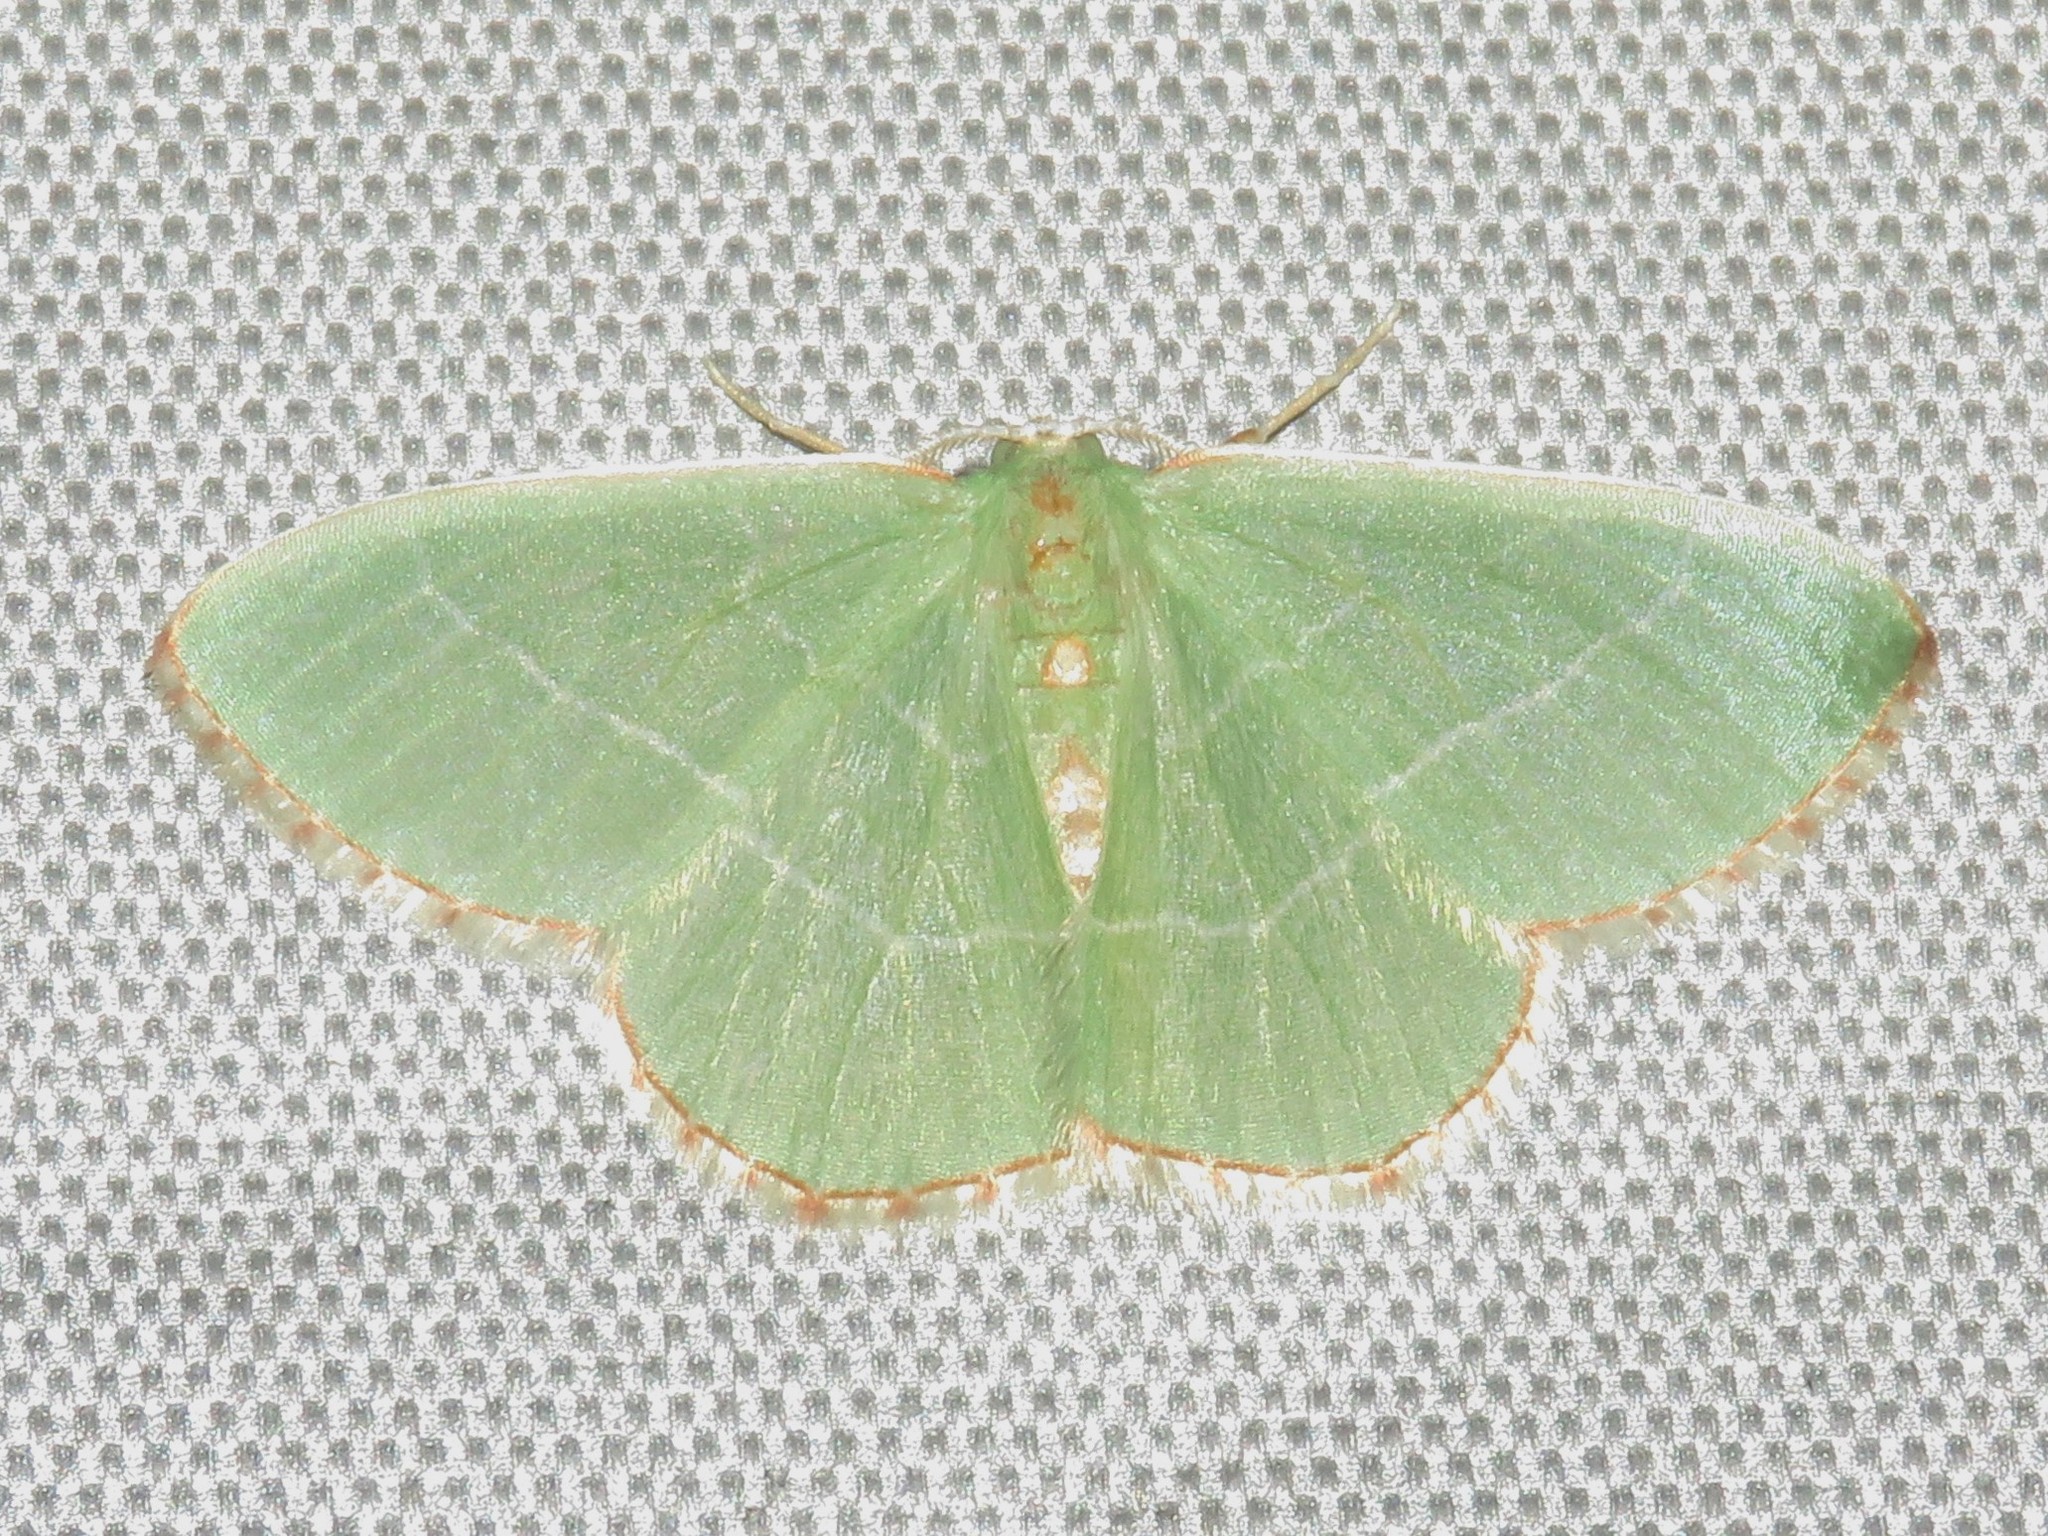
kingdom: Animalia
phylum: Arthropoda
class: Insecta
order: Lepidoptera
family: Geometridae
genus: Nemoria
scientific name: Nemoria bistriaria
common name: Red-fringed emerald
